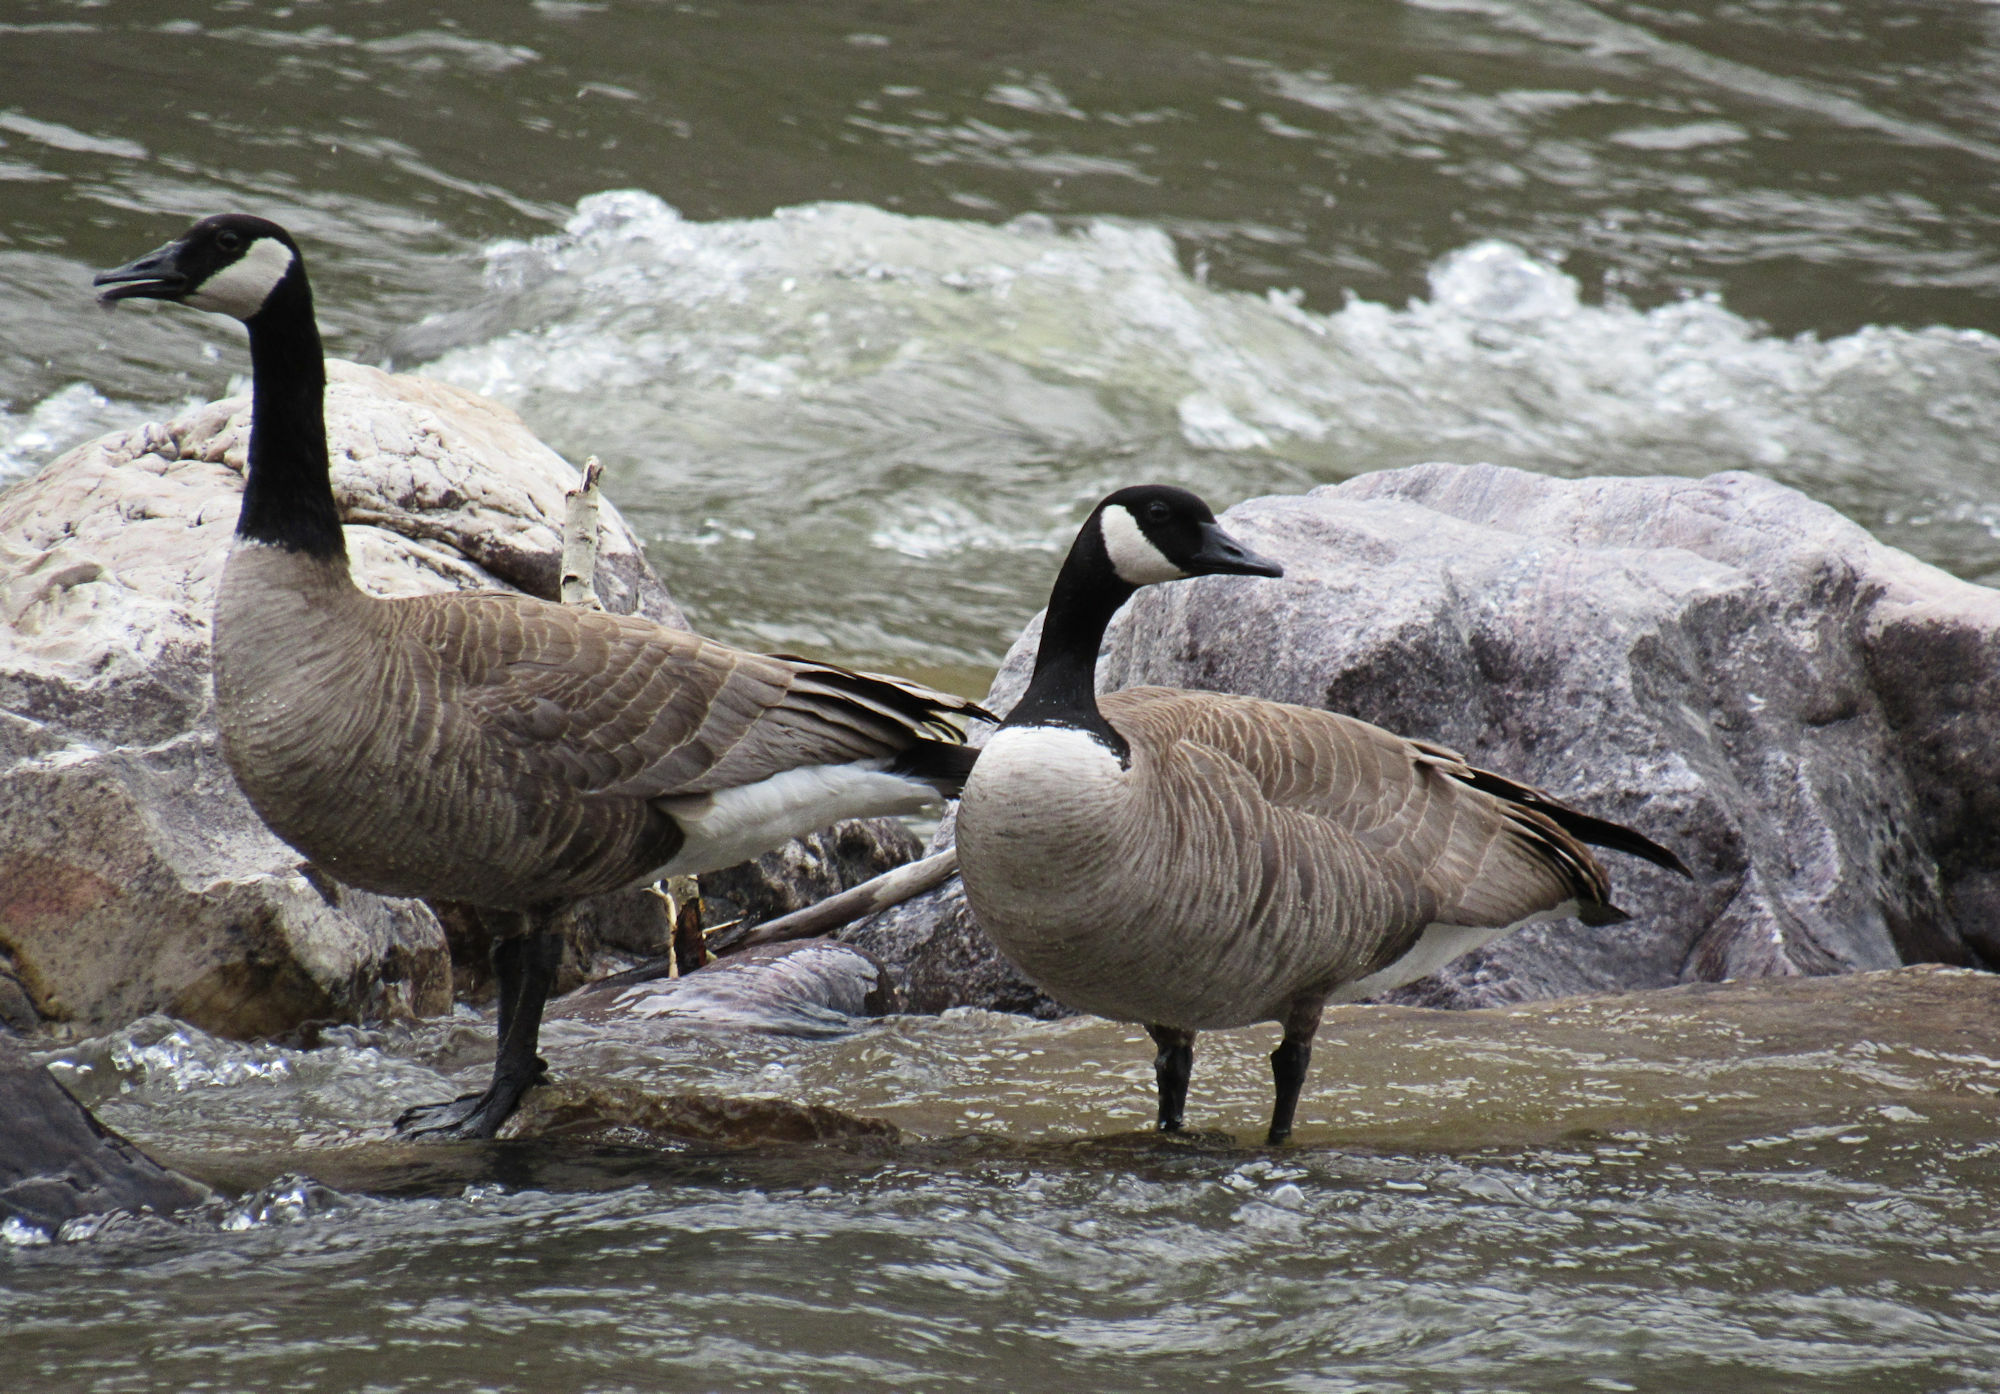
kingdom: Animalia
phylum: Chordata
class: Aves
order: Anseriformes
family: Anatidae
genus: Branta
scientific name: Branta canadensis
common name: Canada goose
